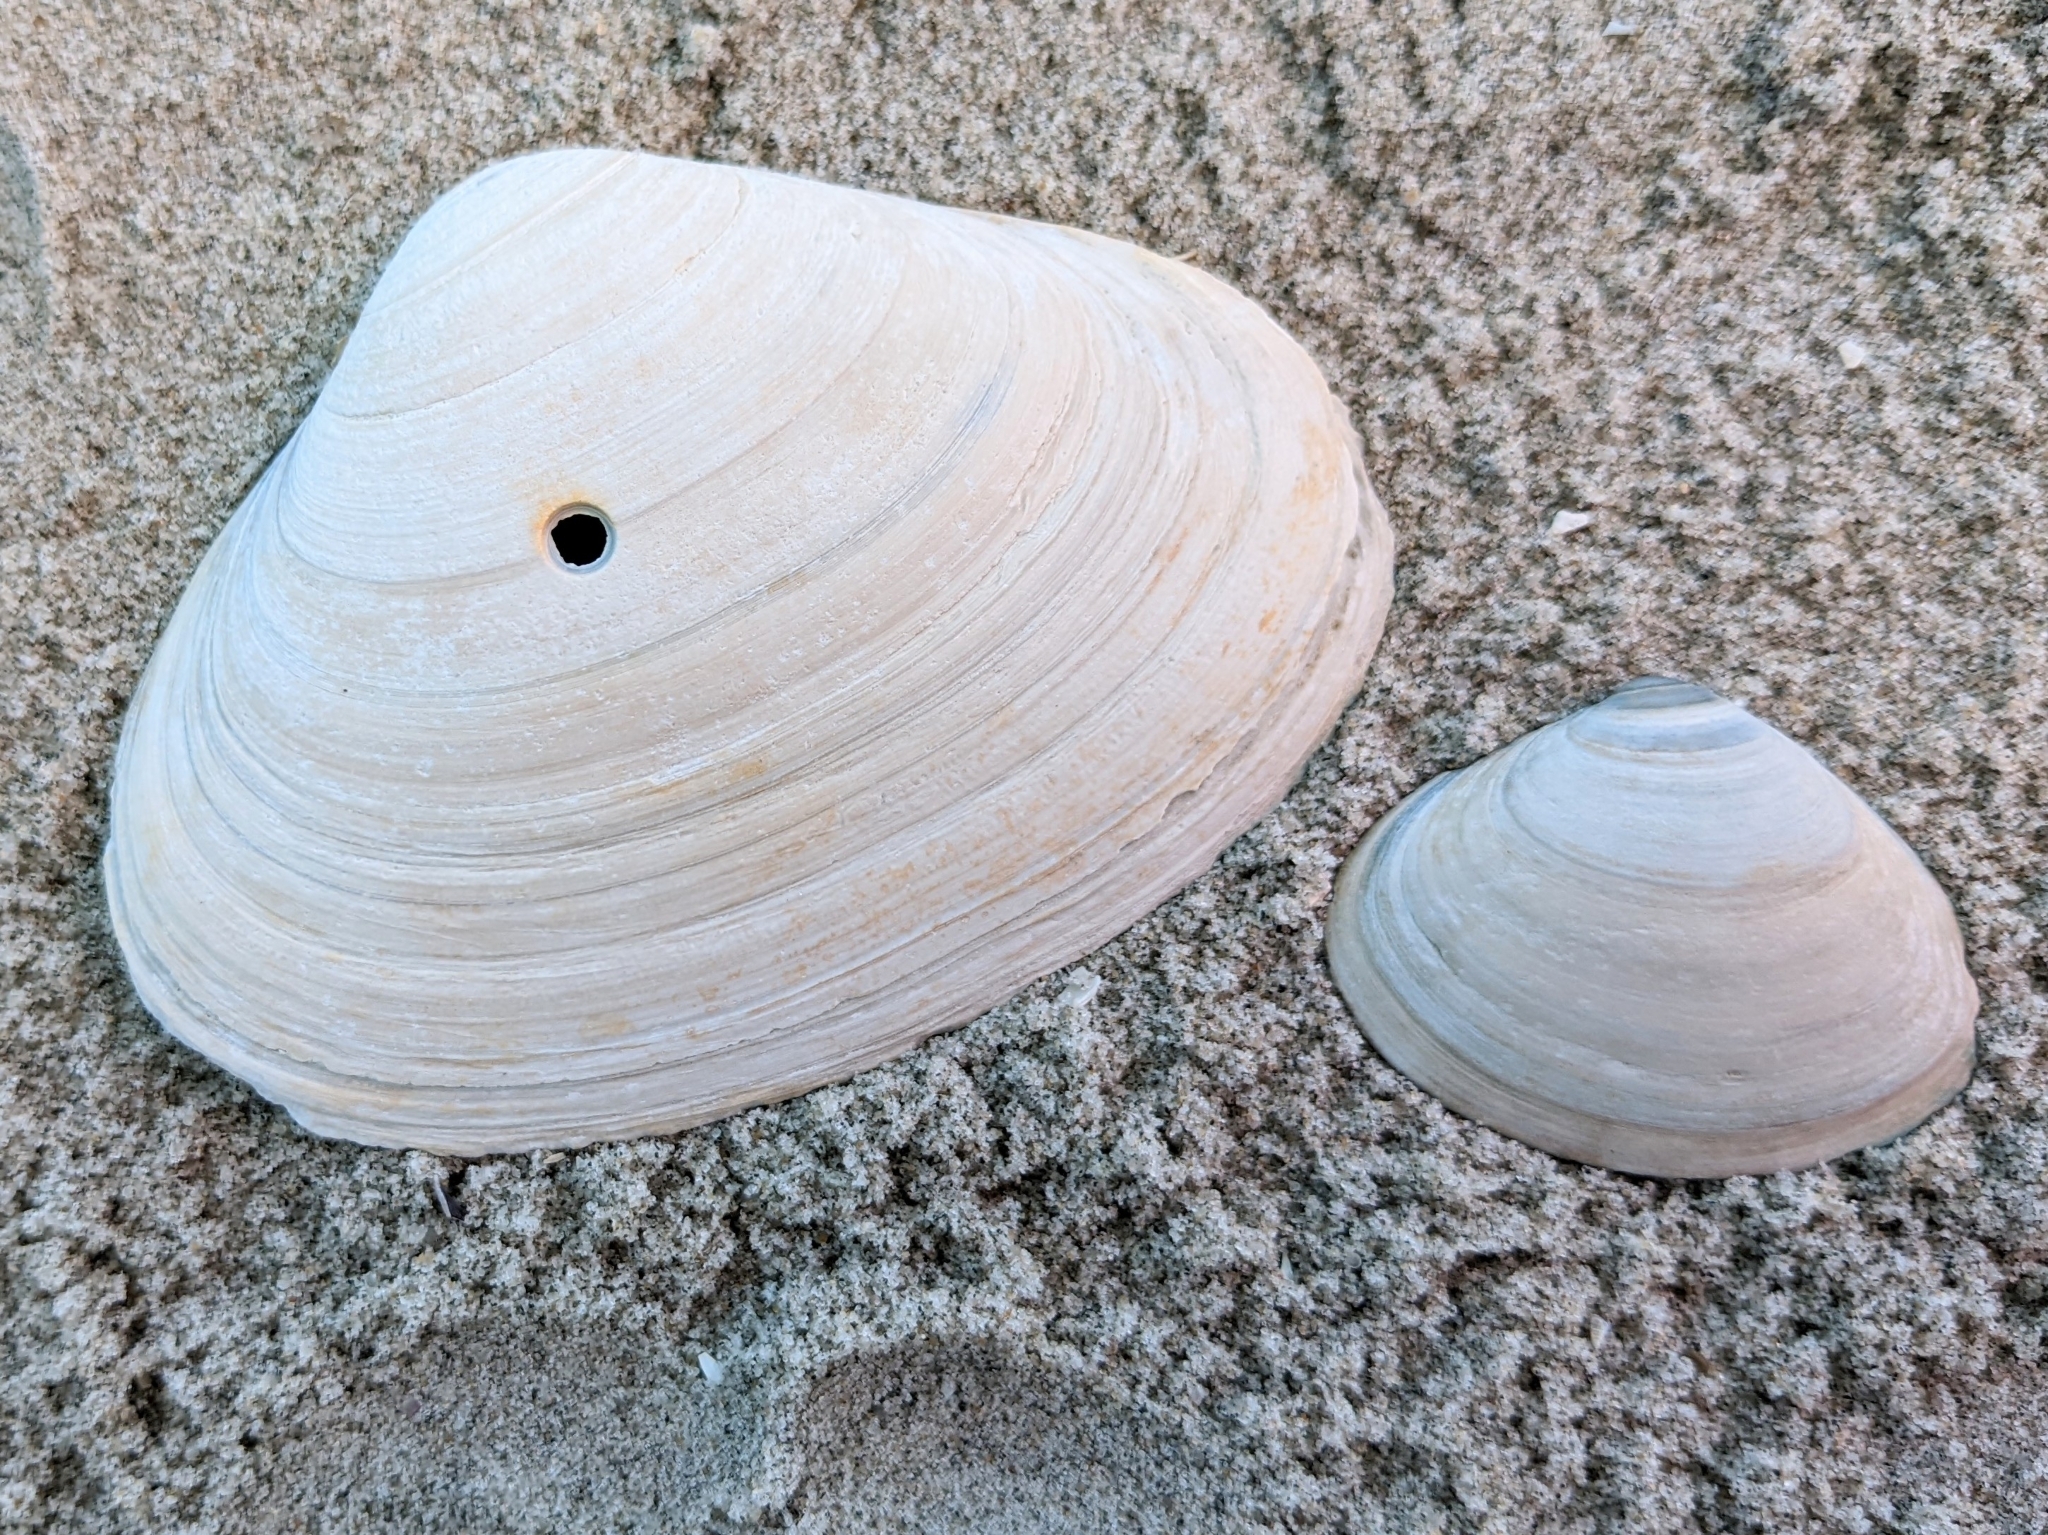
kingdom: Animalia
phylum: Mollusca
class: Bivalvia
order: Venerida
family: Mactridae
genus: Spisula
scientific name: Spisula solidissima
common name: Atlantic surf clam
